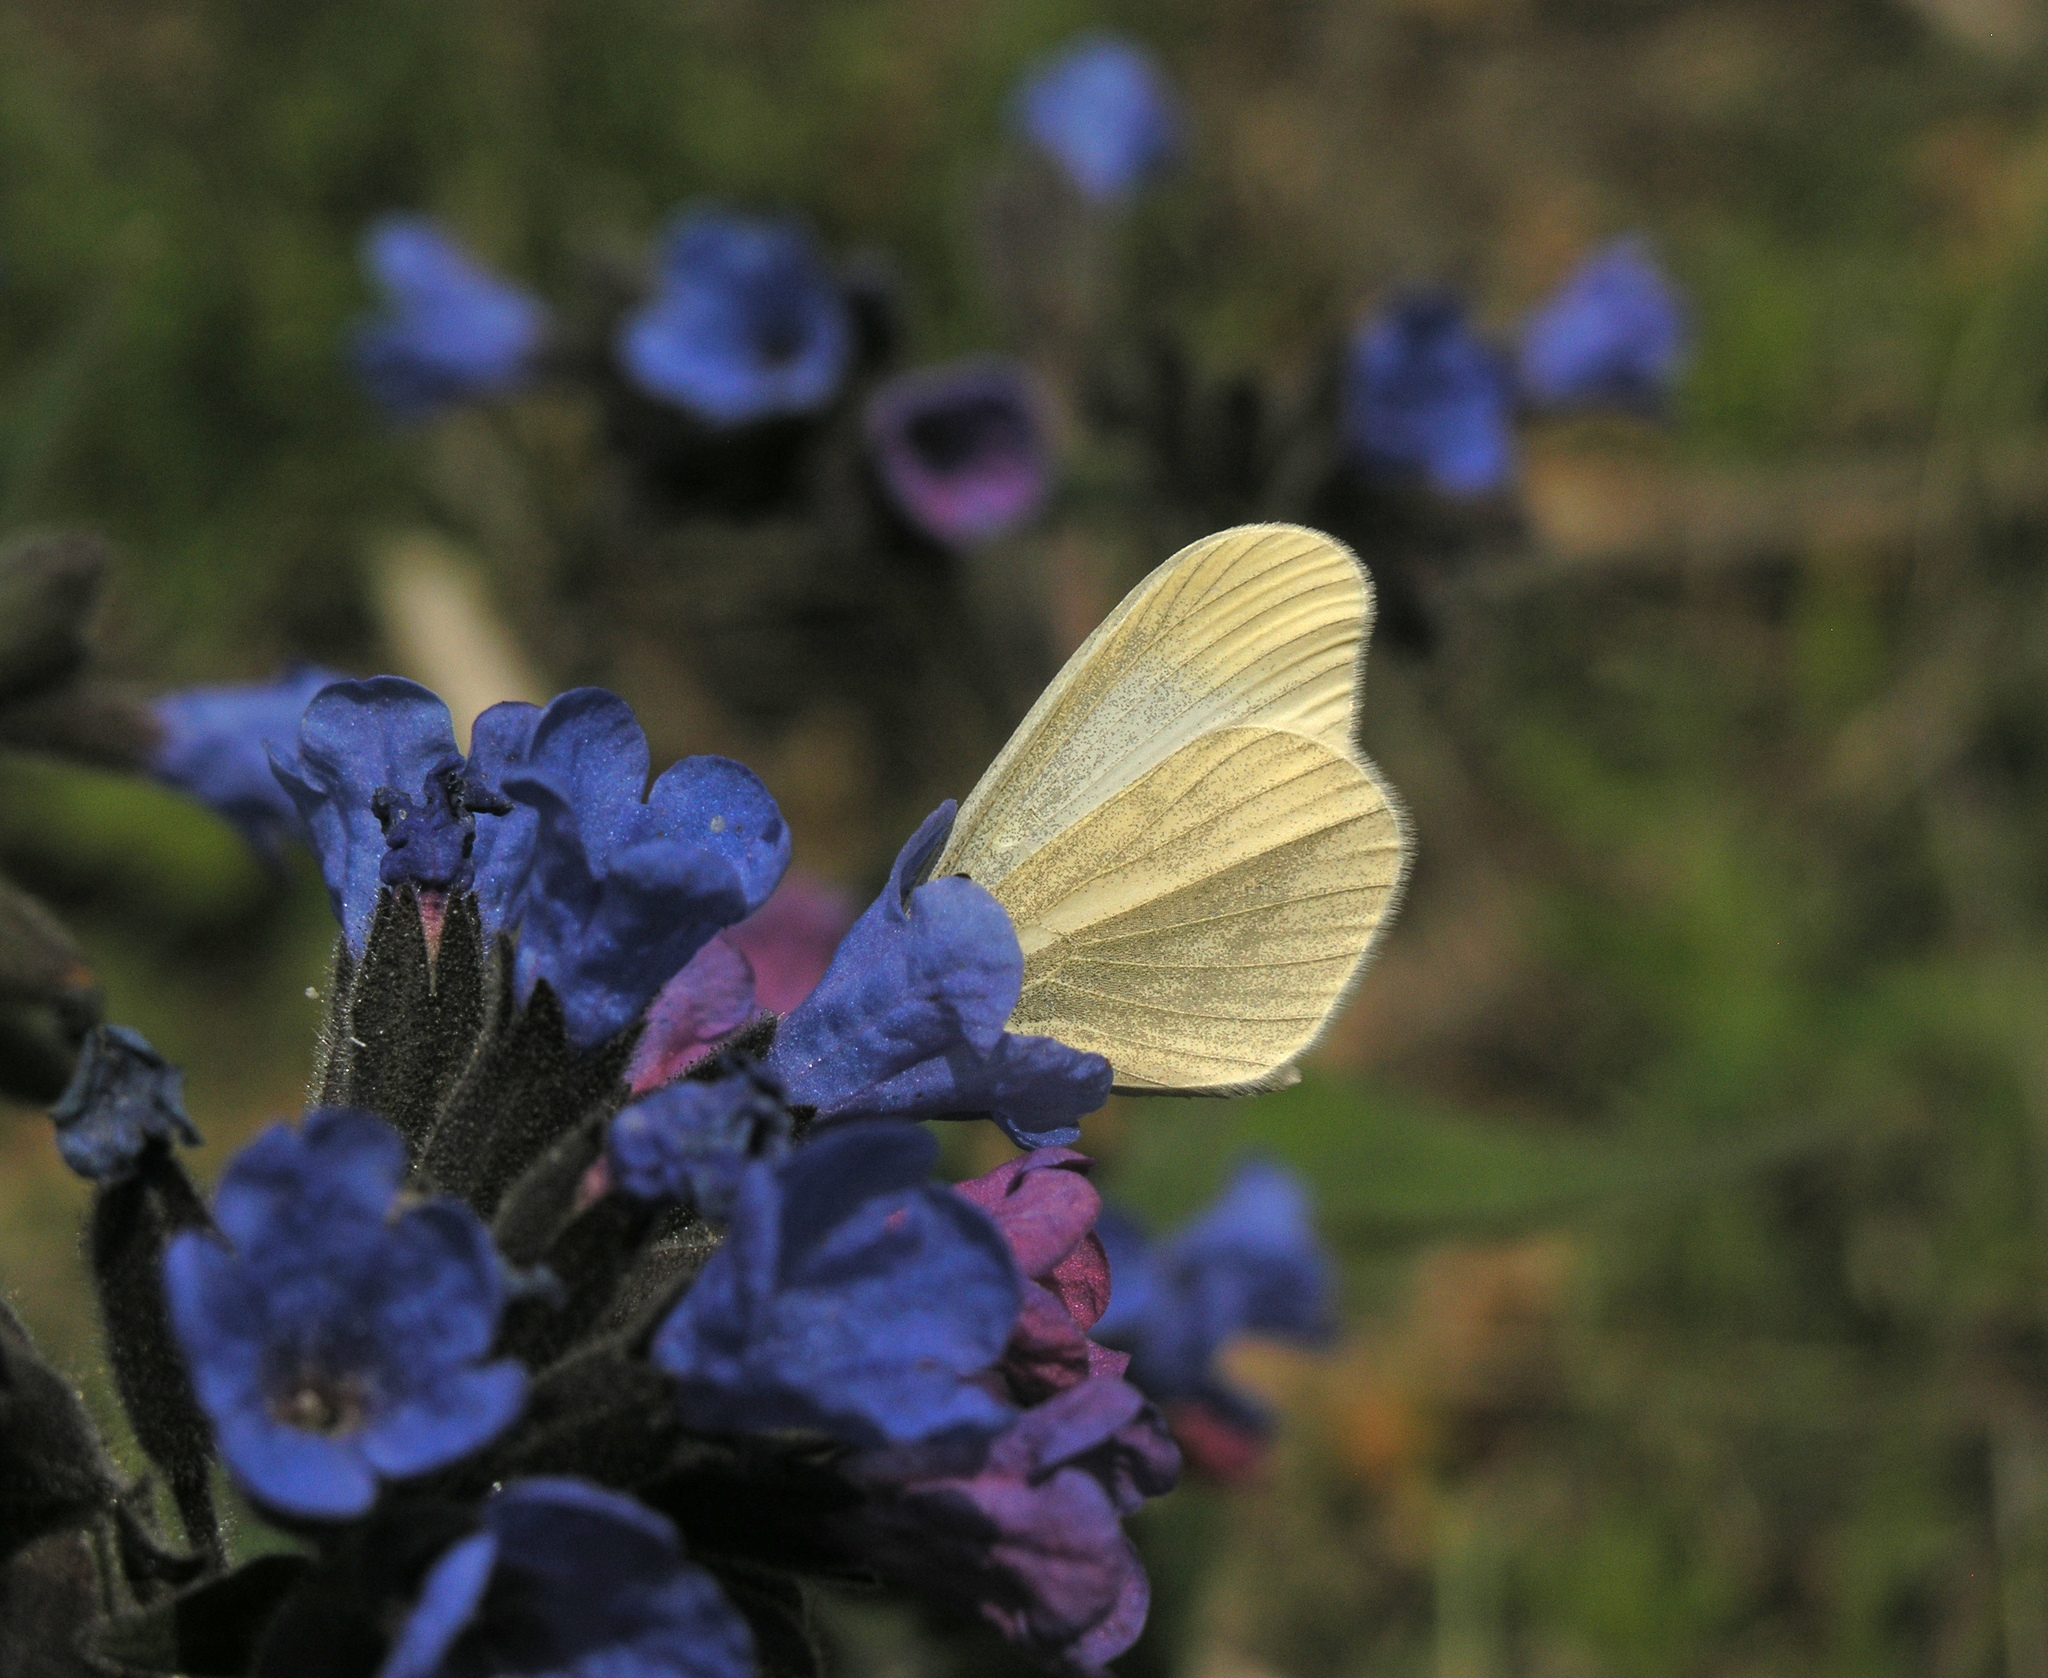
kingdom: Plantae
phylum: Tracheophyta
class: Magnoliopsida
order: Boraginales
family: Boraginaceae
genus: Pulmonaria
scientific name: Pulmonaria mollis
